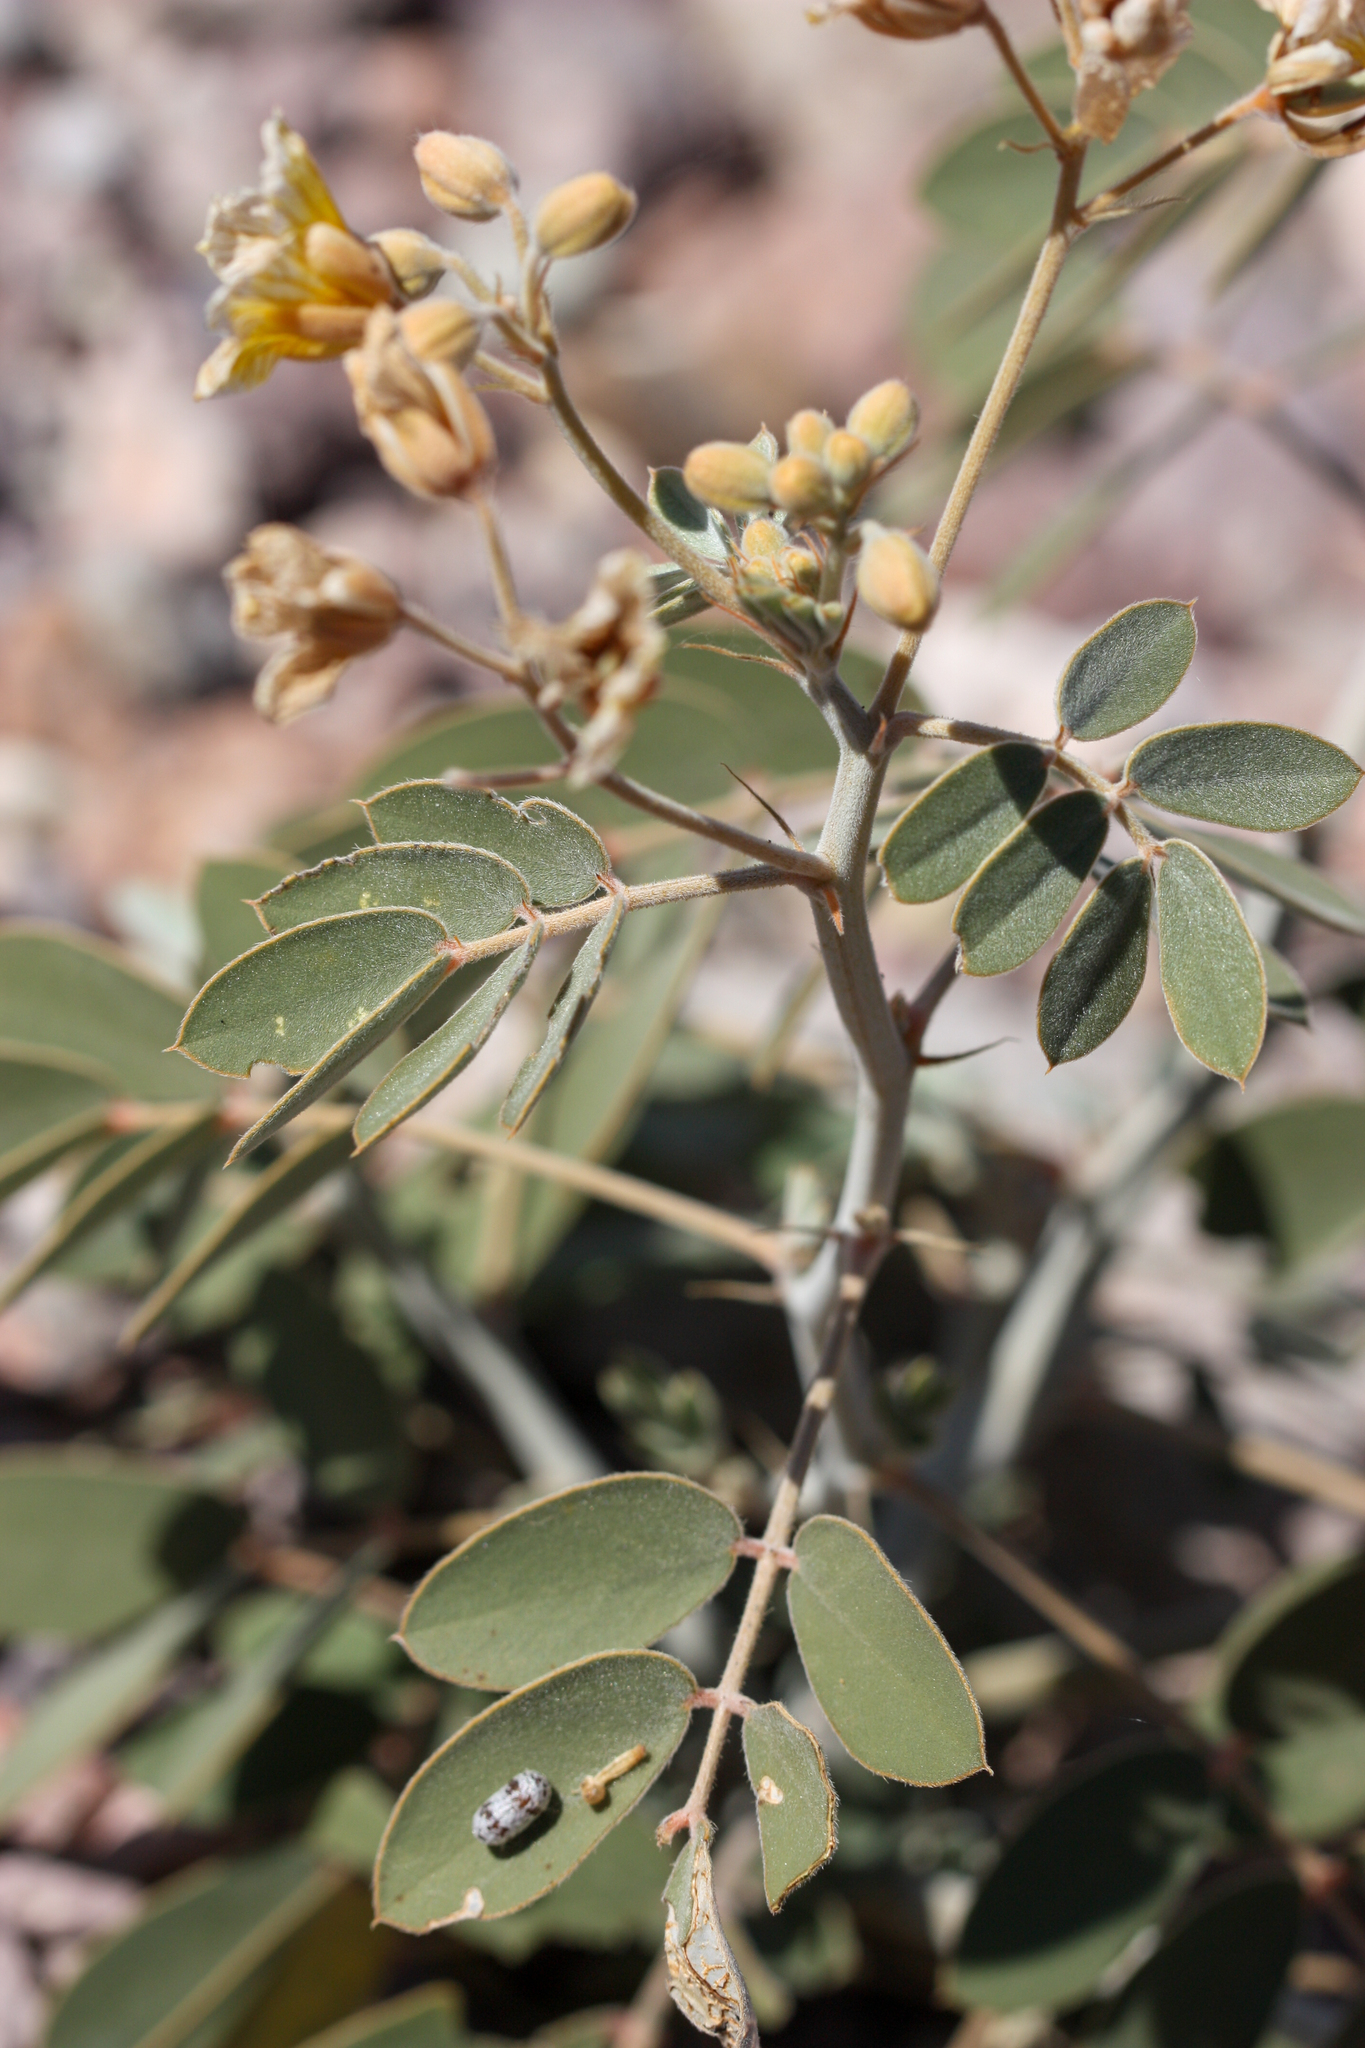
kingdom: Plantae
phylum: Tracheophyta
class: Magnoliopsida
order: Fabales
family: Fabaceae
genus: Senna
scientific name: Senna covesii
